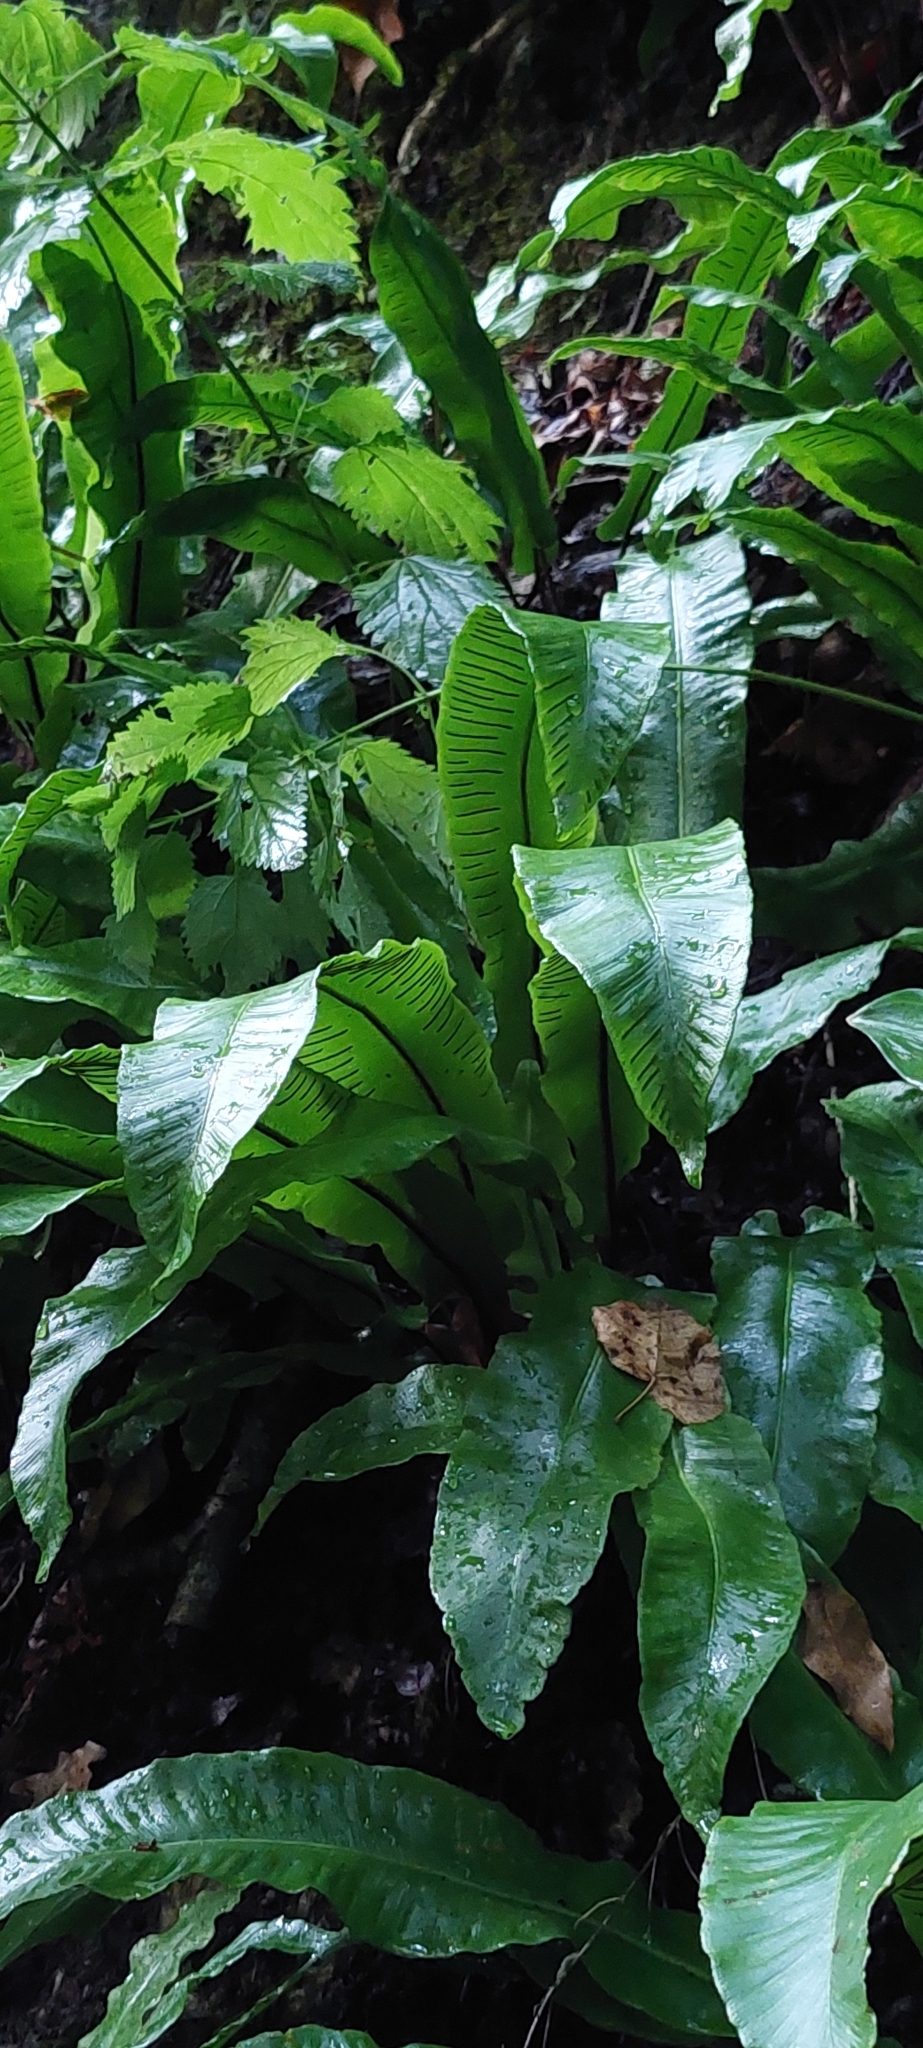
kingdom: Plantae
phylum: Tracheophyta
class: Polypodiopsida
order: Polypodiales
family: Aspleniaceae
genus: Asplenium
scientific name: Asplenium scolopendrium
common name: Hart's-tongue fern
